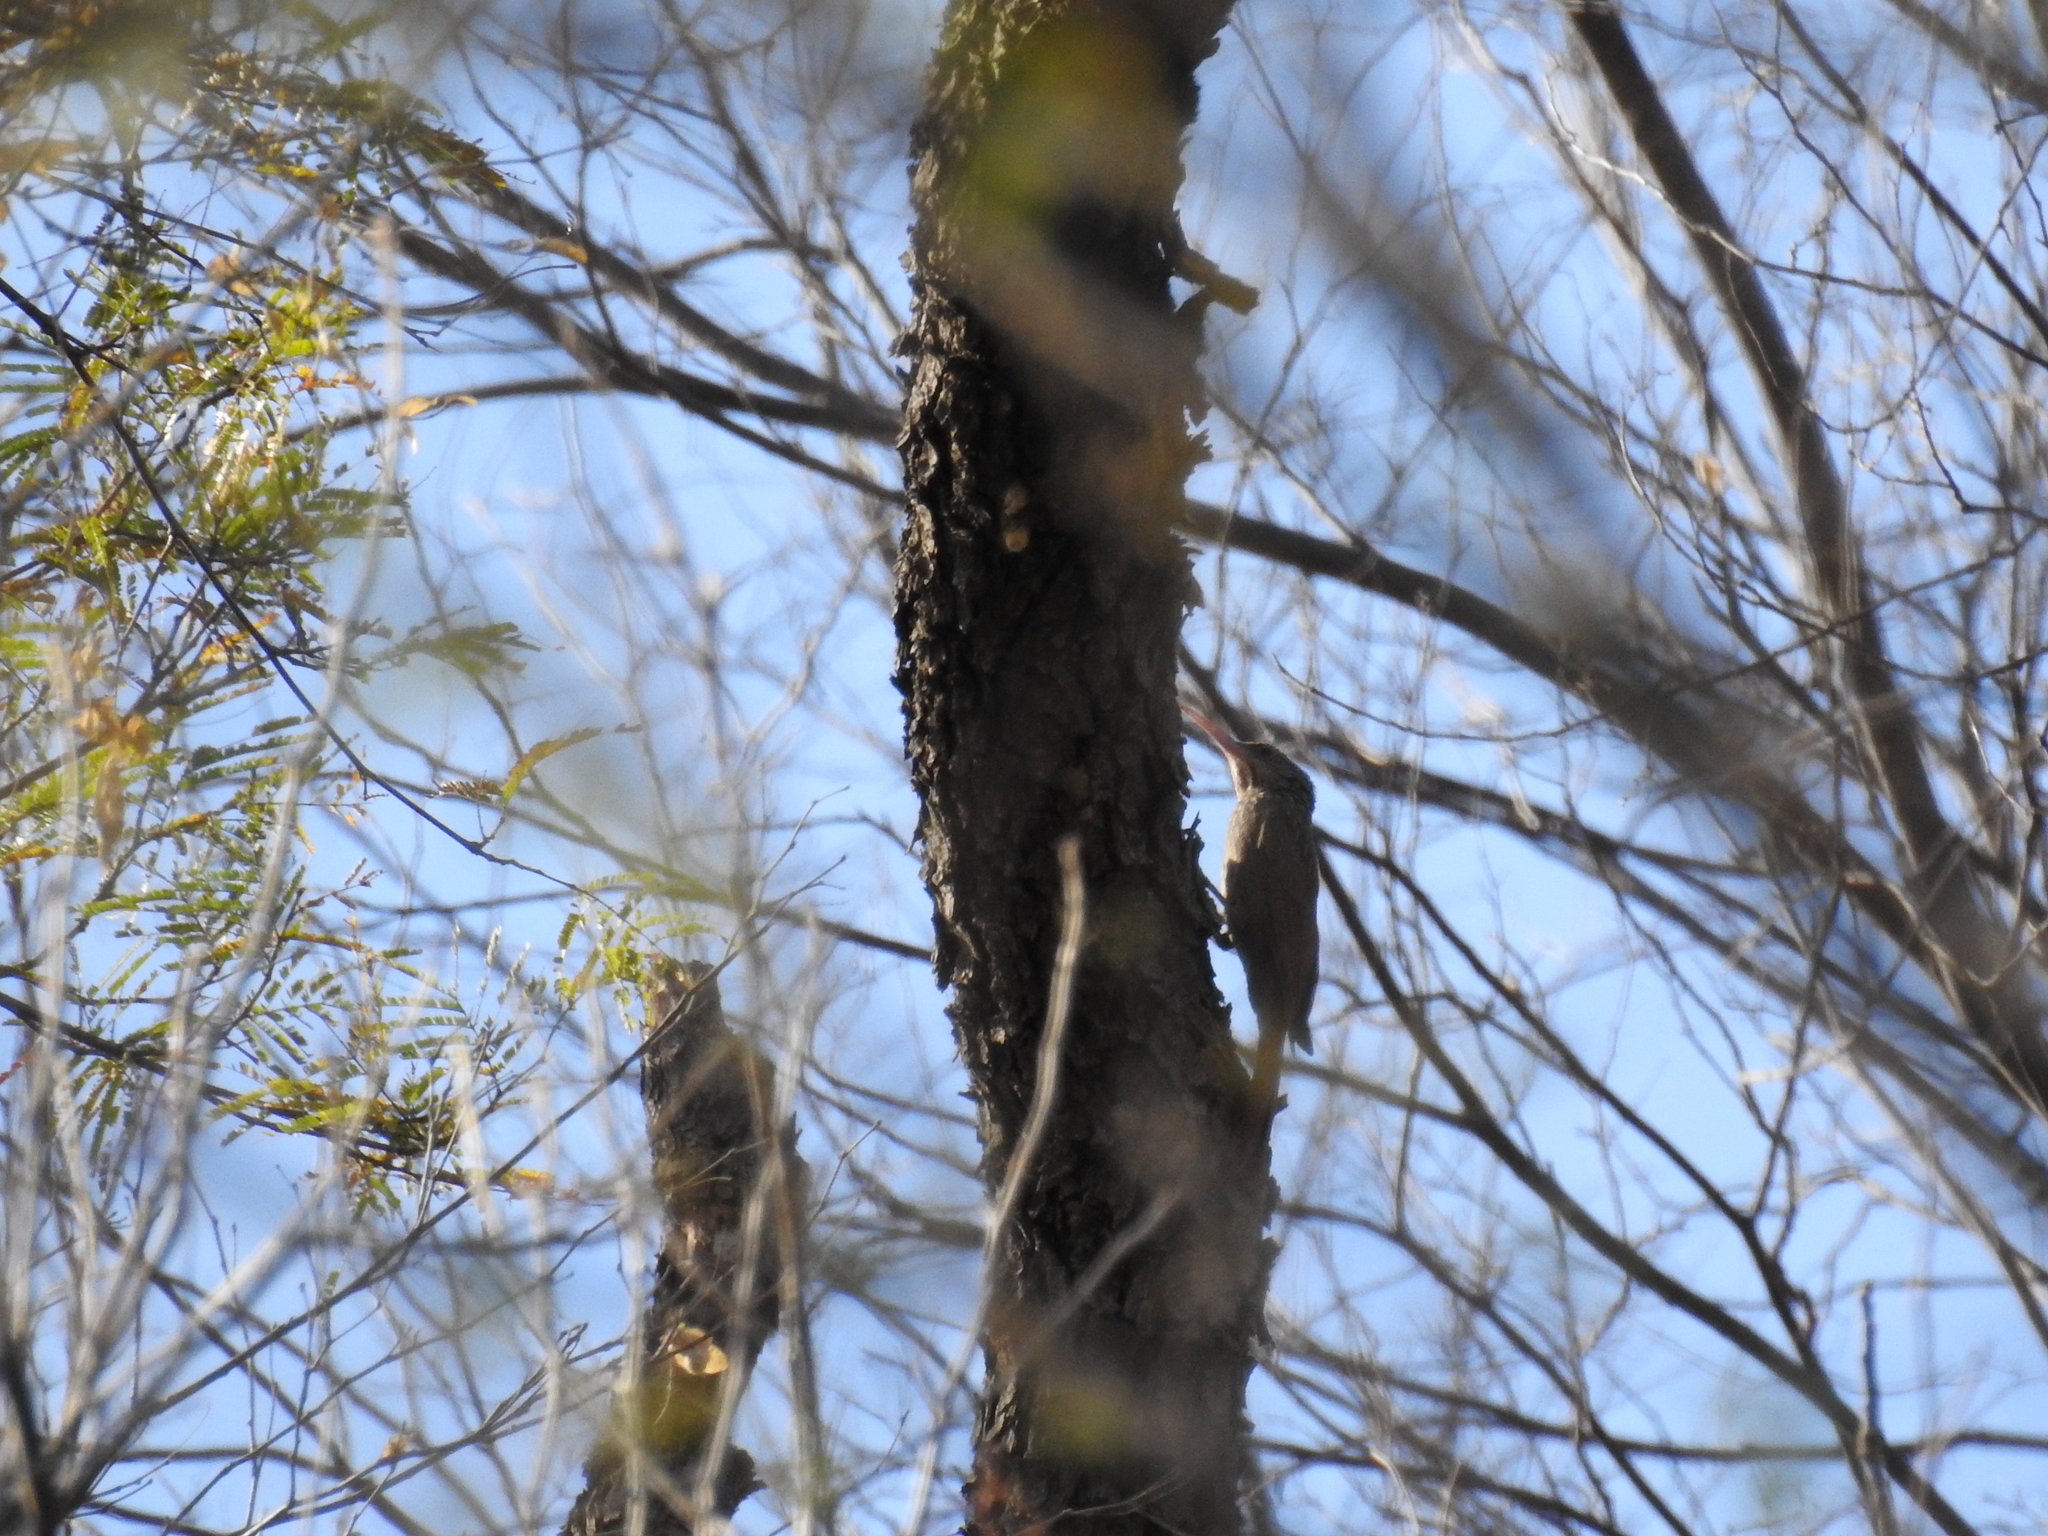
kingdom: Animalia
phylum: Chordata
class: Aves
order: Passeriformes
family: Furnariidae
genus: Xiphorhynchus
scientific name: Xiphorhynchus flavigaster
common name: Ivory-billed woodcreeper
